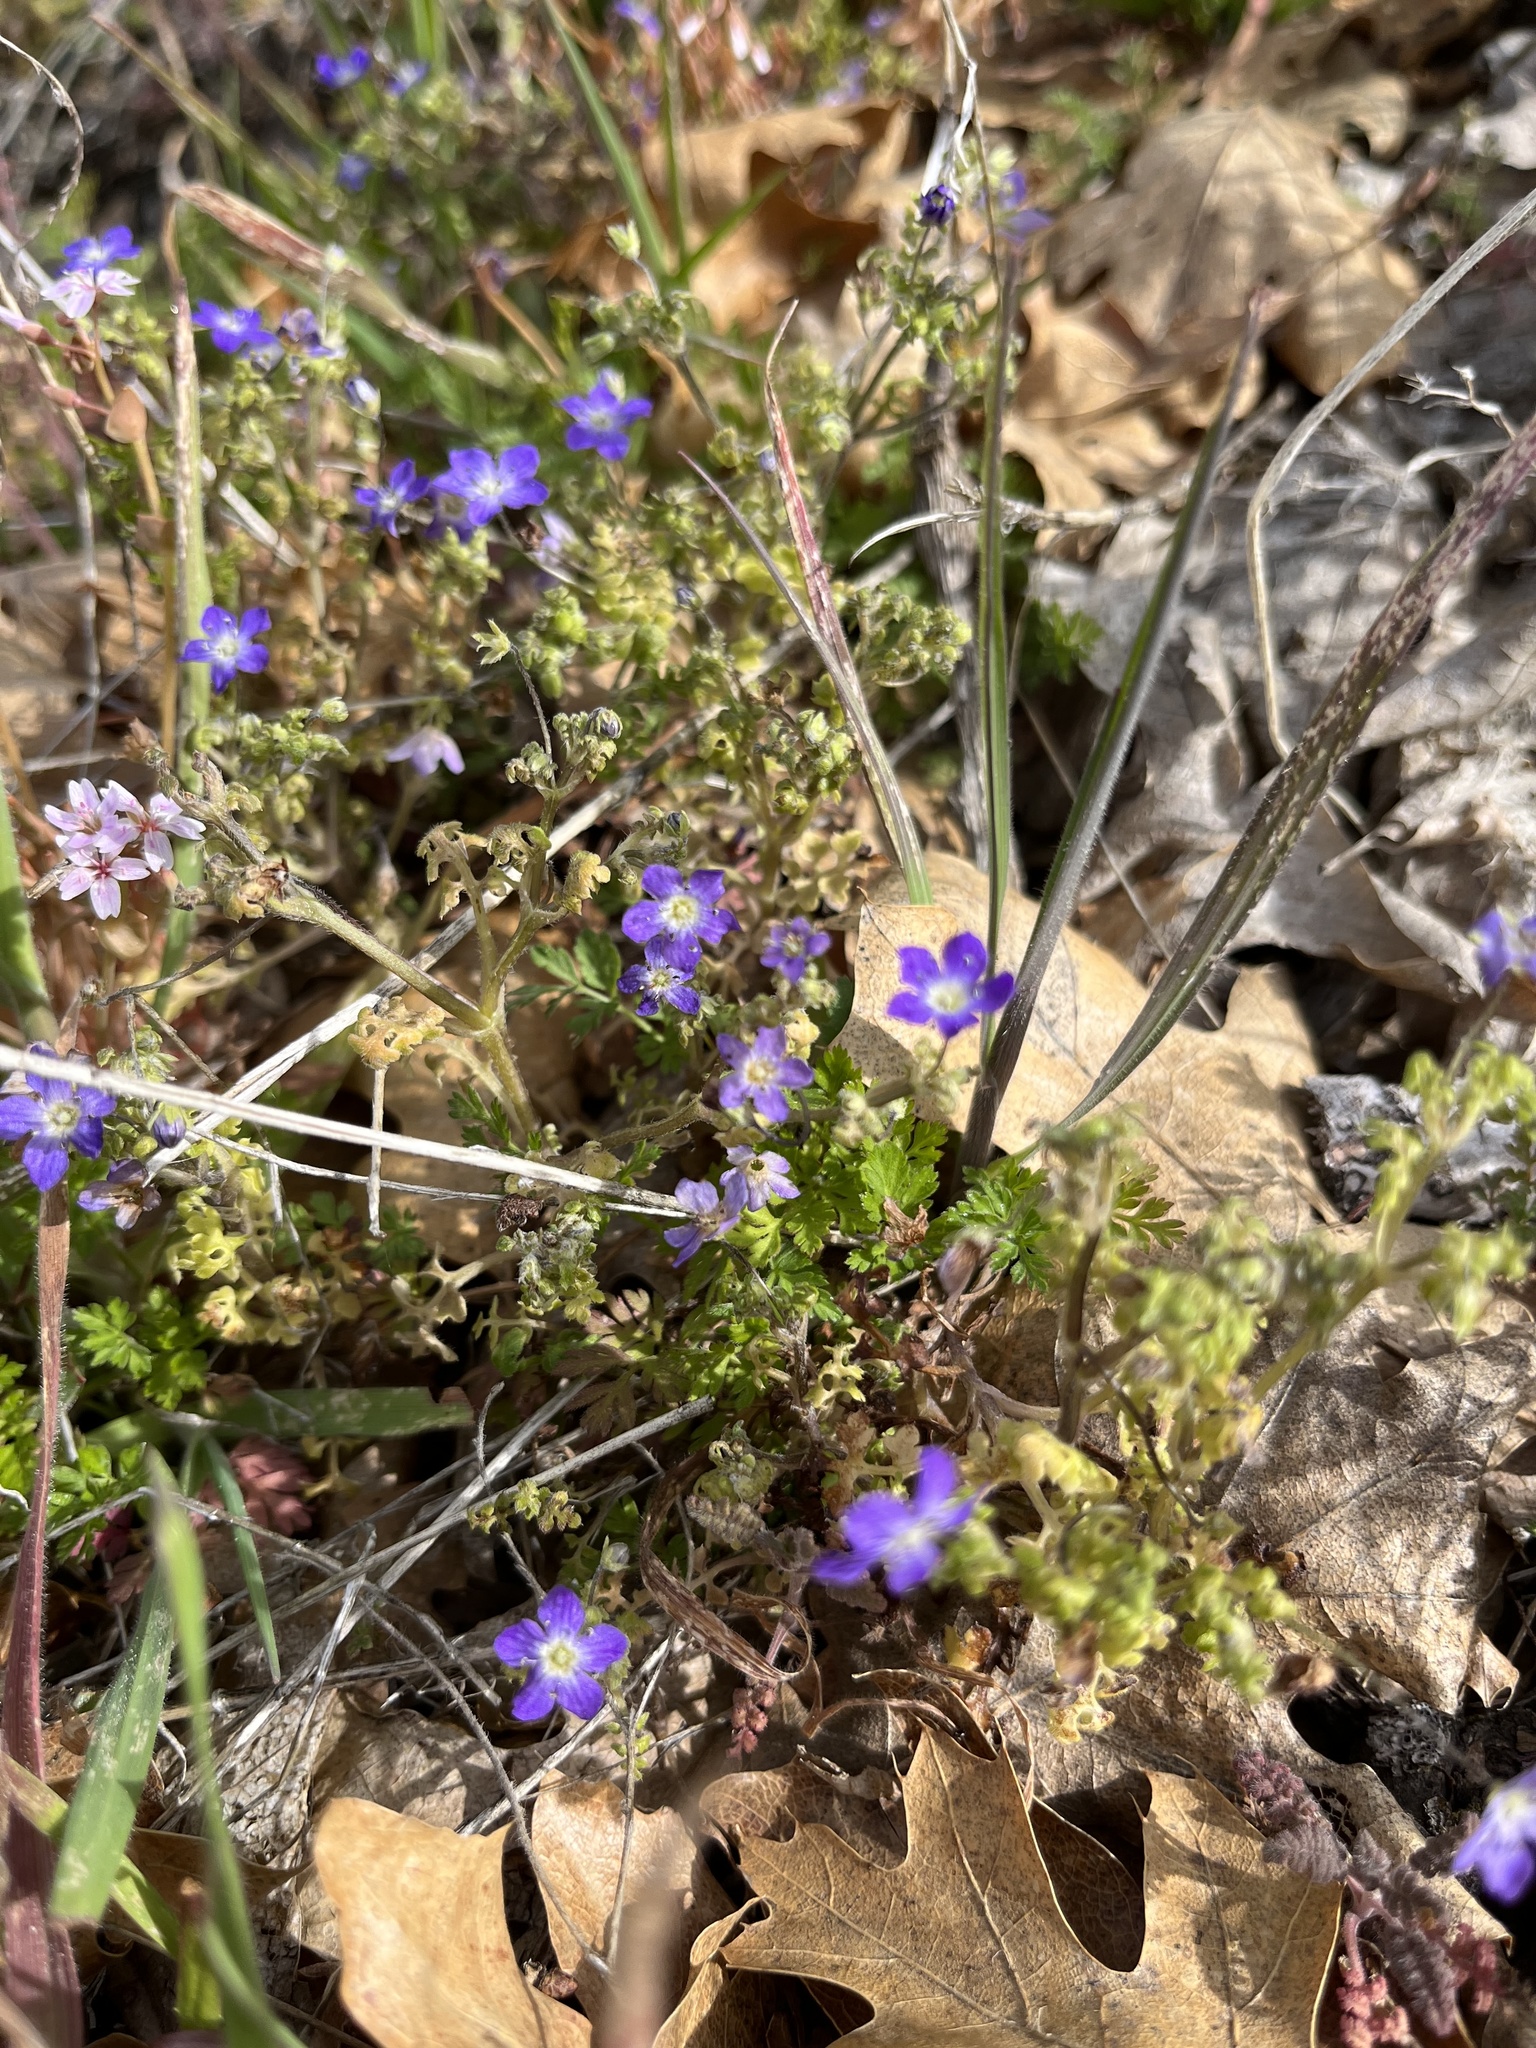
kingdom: Plantae
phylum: Tracheophyta
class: Magnoliopsida
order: Boraginales
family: Hydrophyllaceae
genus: Nemophila
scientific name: Nemophila pulchella
